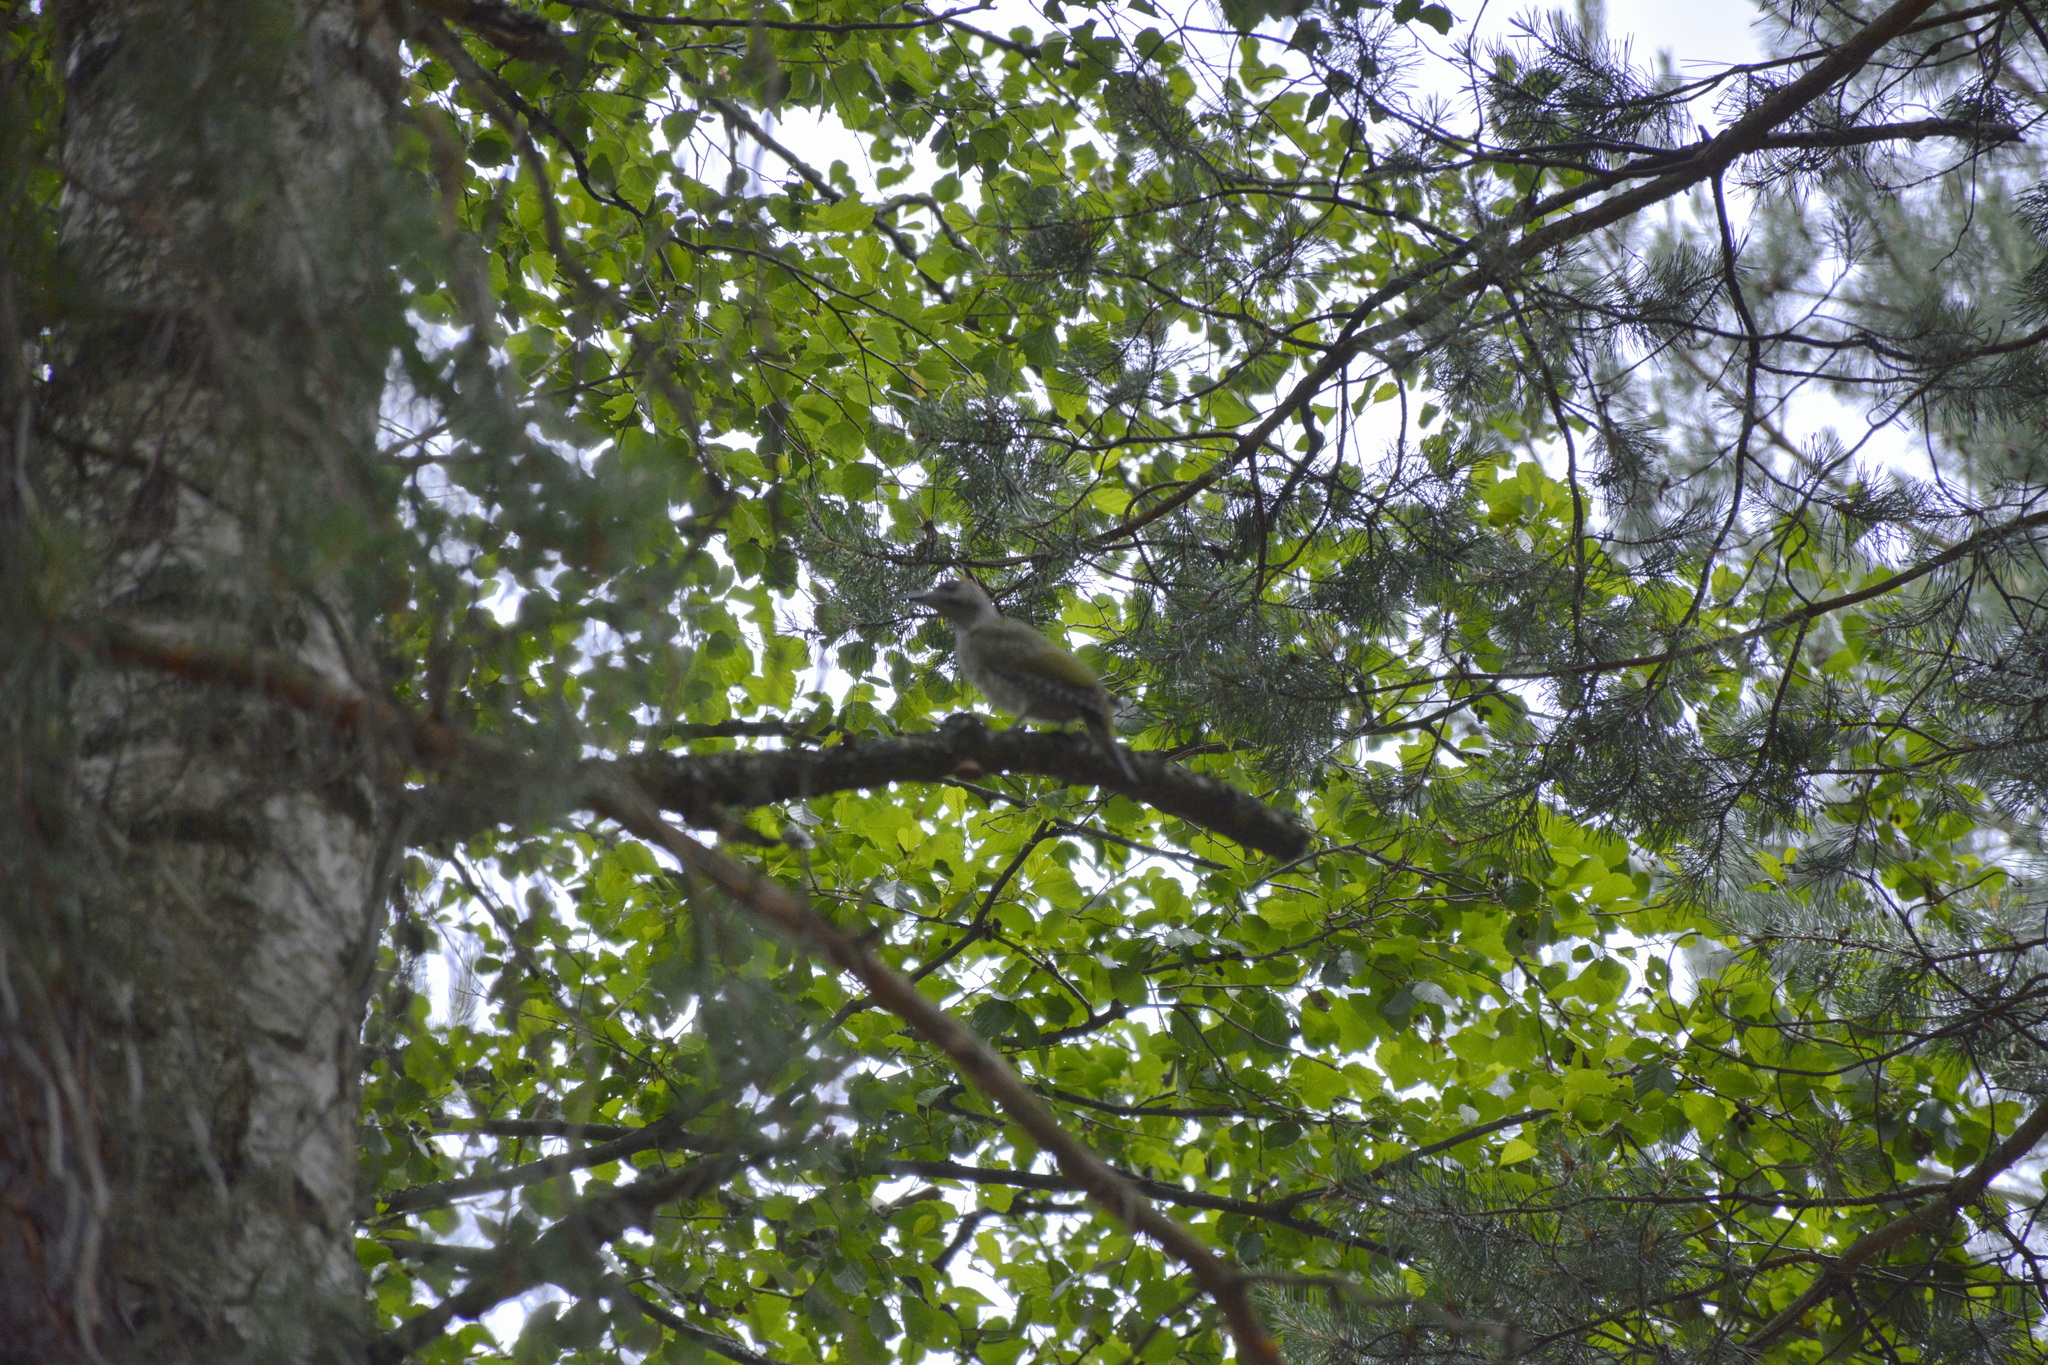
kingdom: Animalia
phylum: Chordata
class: Aves
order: Piciformes
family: Picidae
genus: Picus
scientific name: Picus canus
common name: Grey-headed woodpecker
